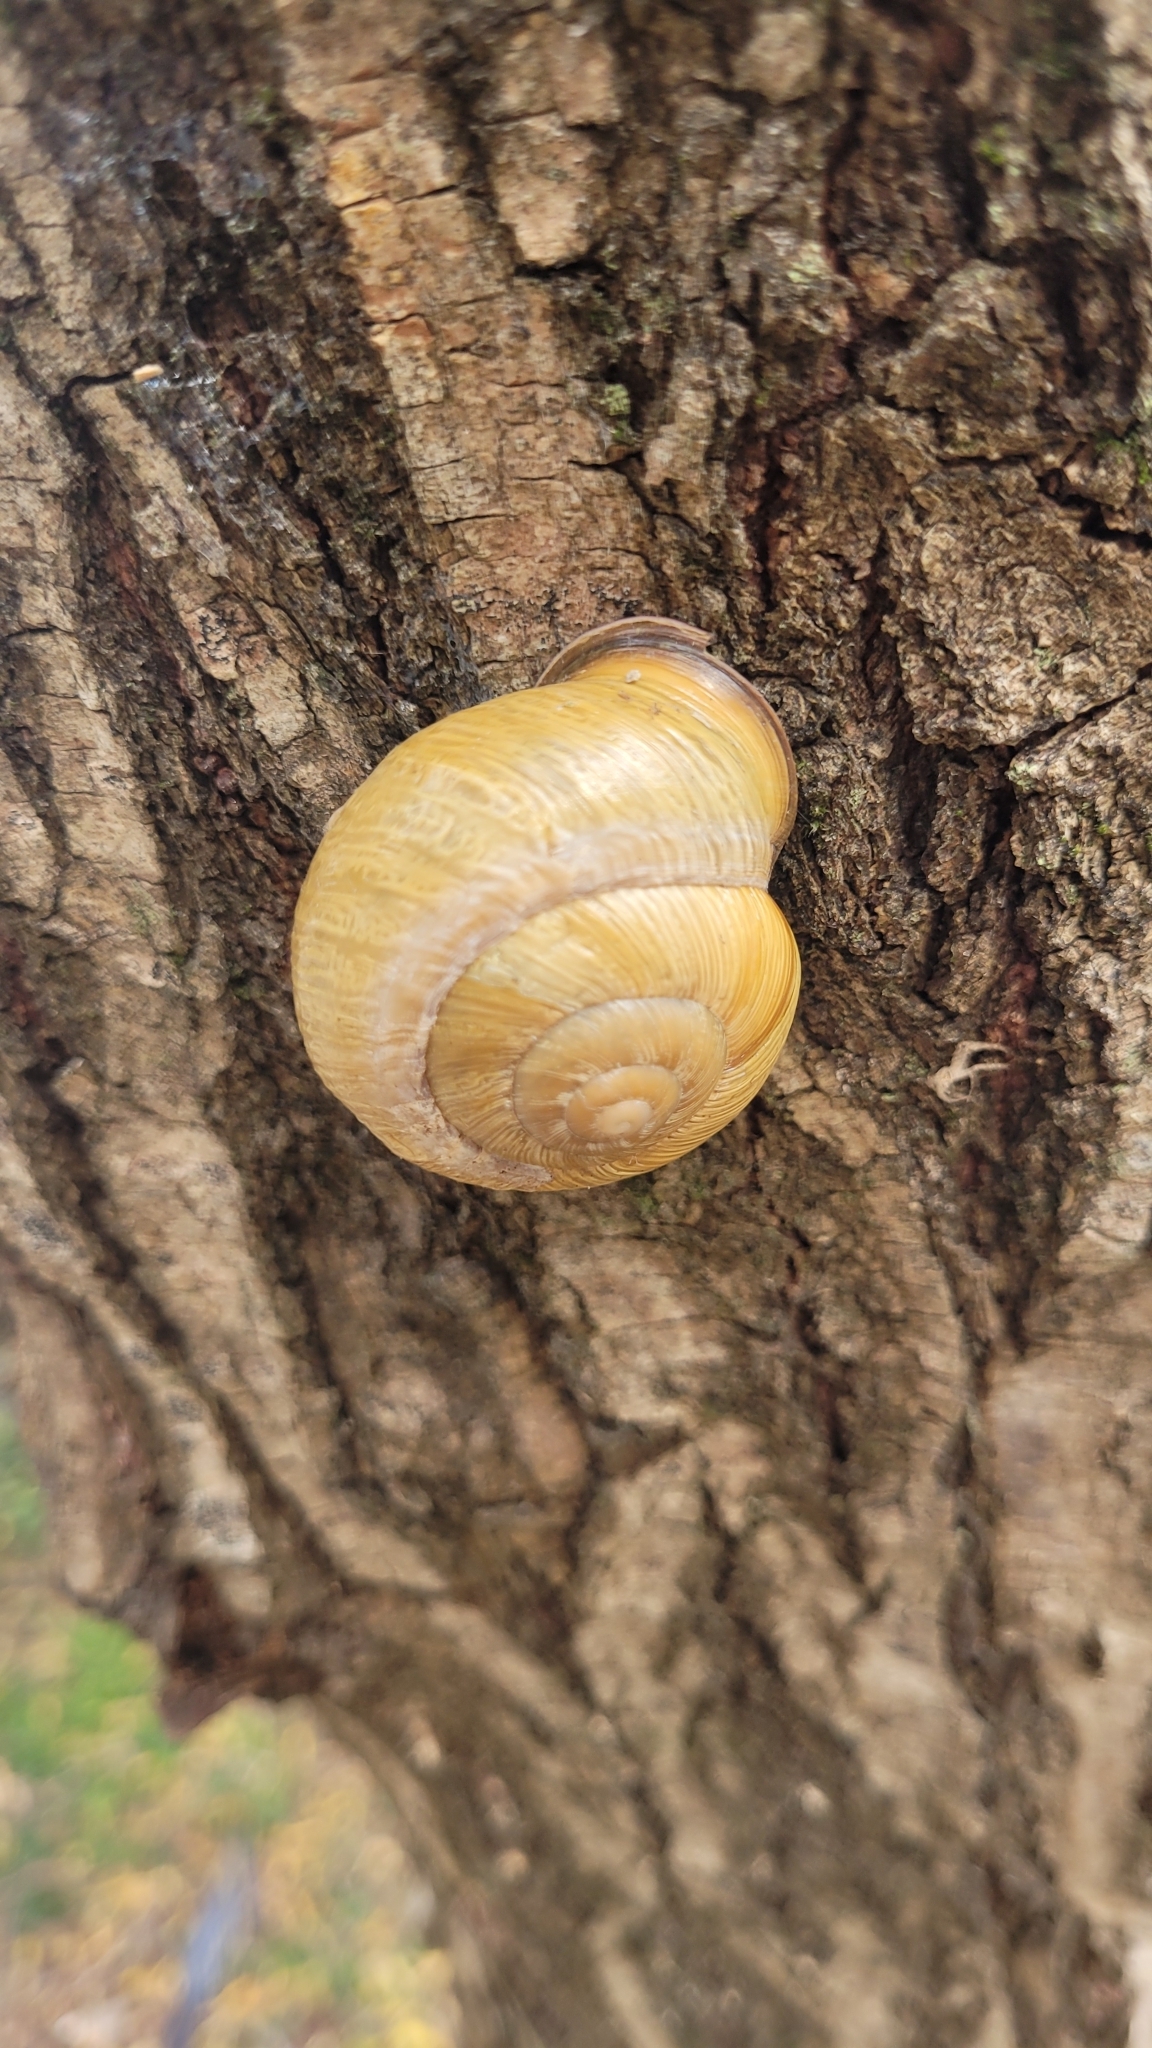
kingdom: Animalia
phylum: Mollusca
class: Gastropoda
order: Stylommatophora
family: Helicidae
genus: Caucasotachea
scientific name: Caucasotachea atrolabiata
